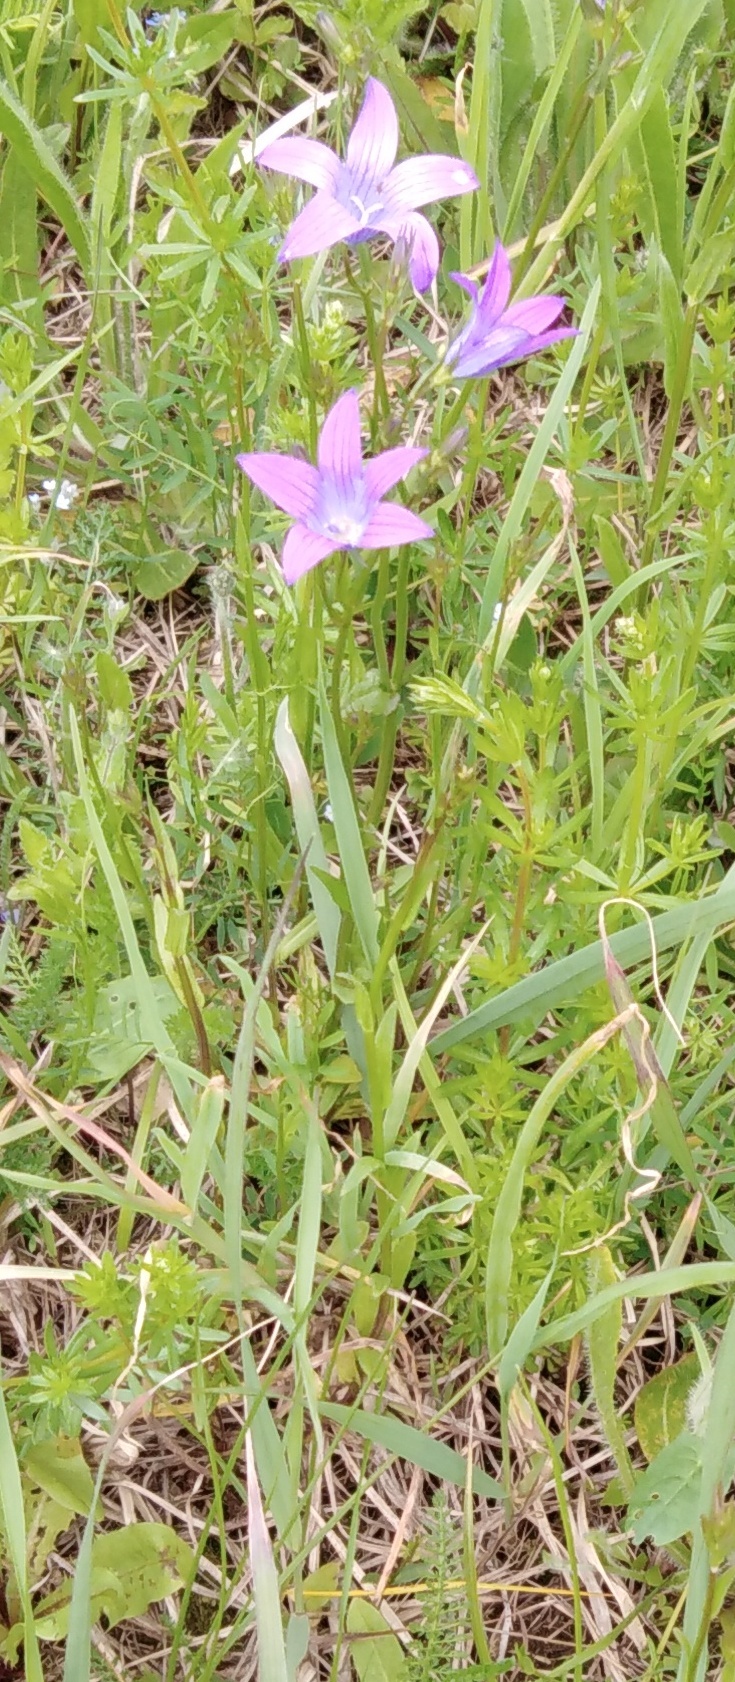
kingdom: Plantae
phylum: Tracheophyta
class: Magnoliopsida
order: Asterales
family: Campanulaceae
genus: Campanula
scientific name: Campanula patula
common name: Spreading bellflower
